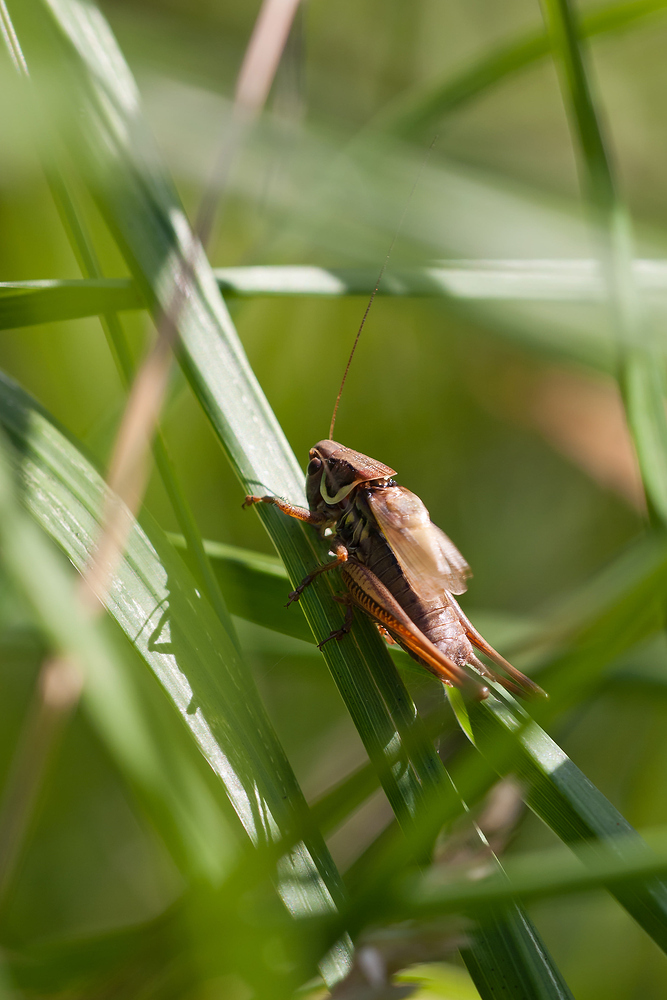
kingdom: Animalia
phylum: Arthropoda
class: Insecta
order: Orthoptera
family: Tettigoniidae
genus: Roeseliana
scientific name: Roeseliana roeselii
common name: Roesel's bush cricket
